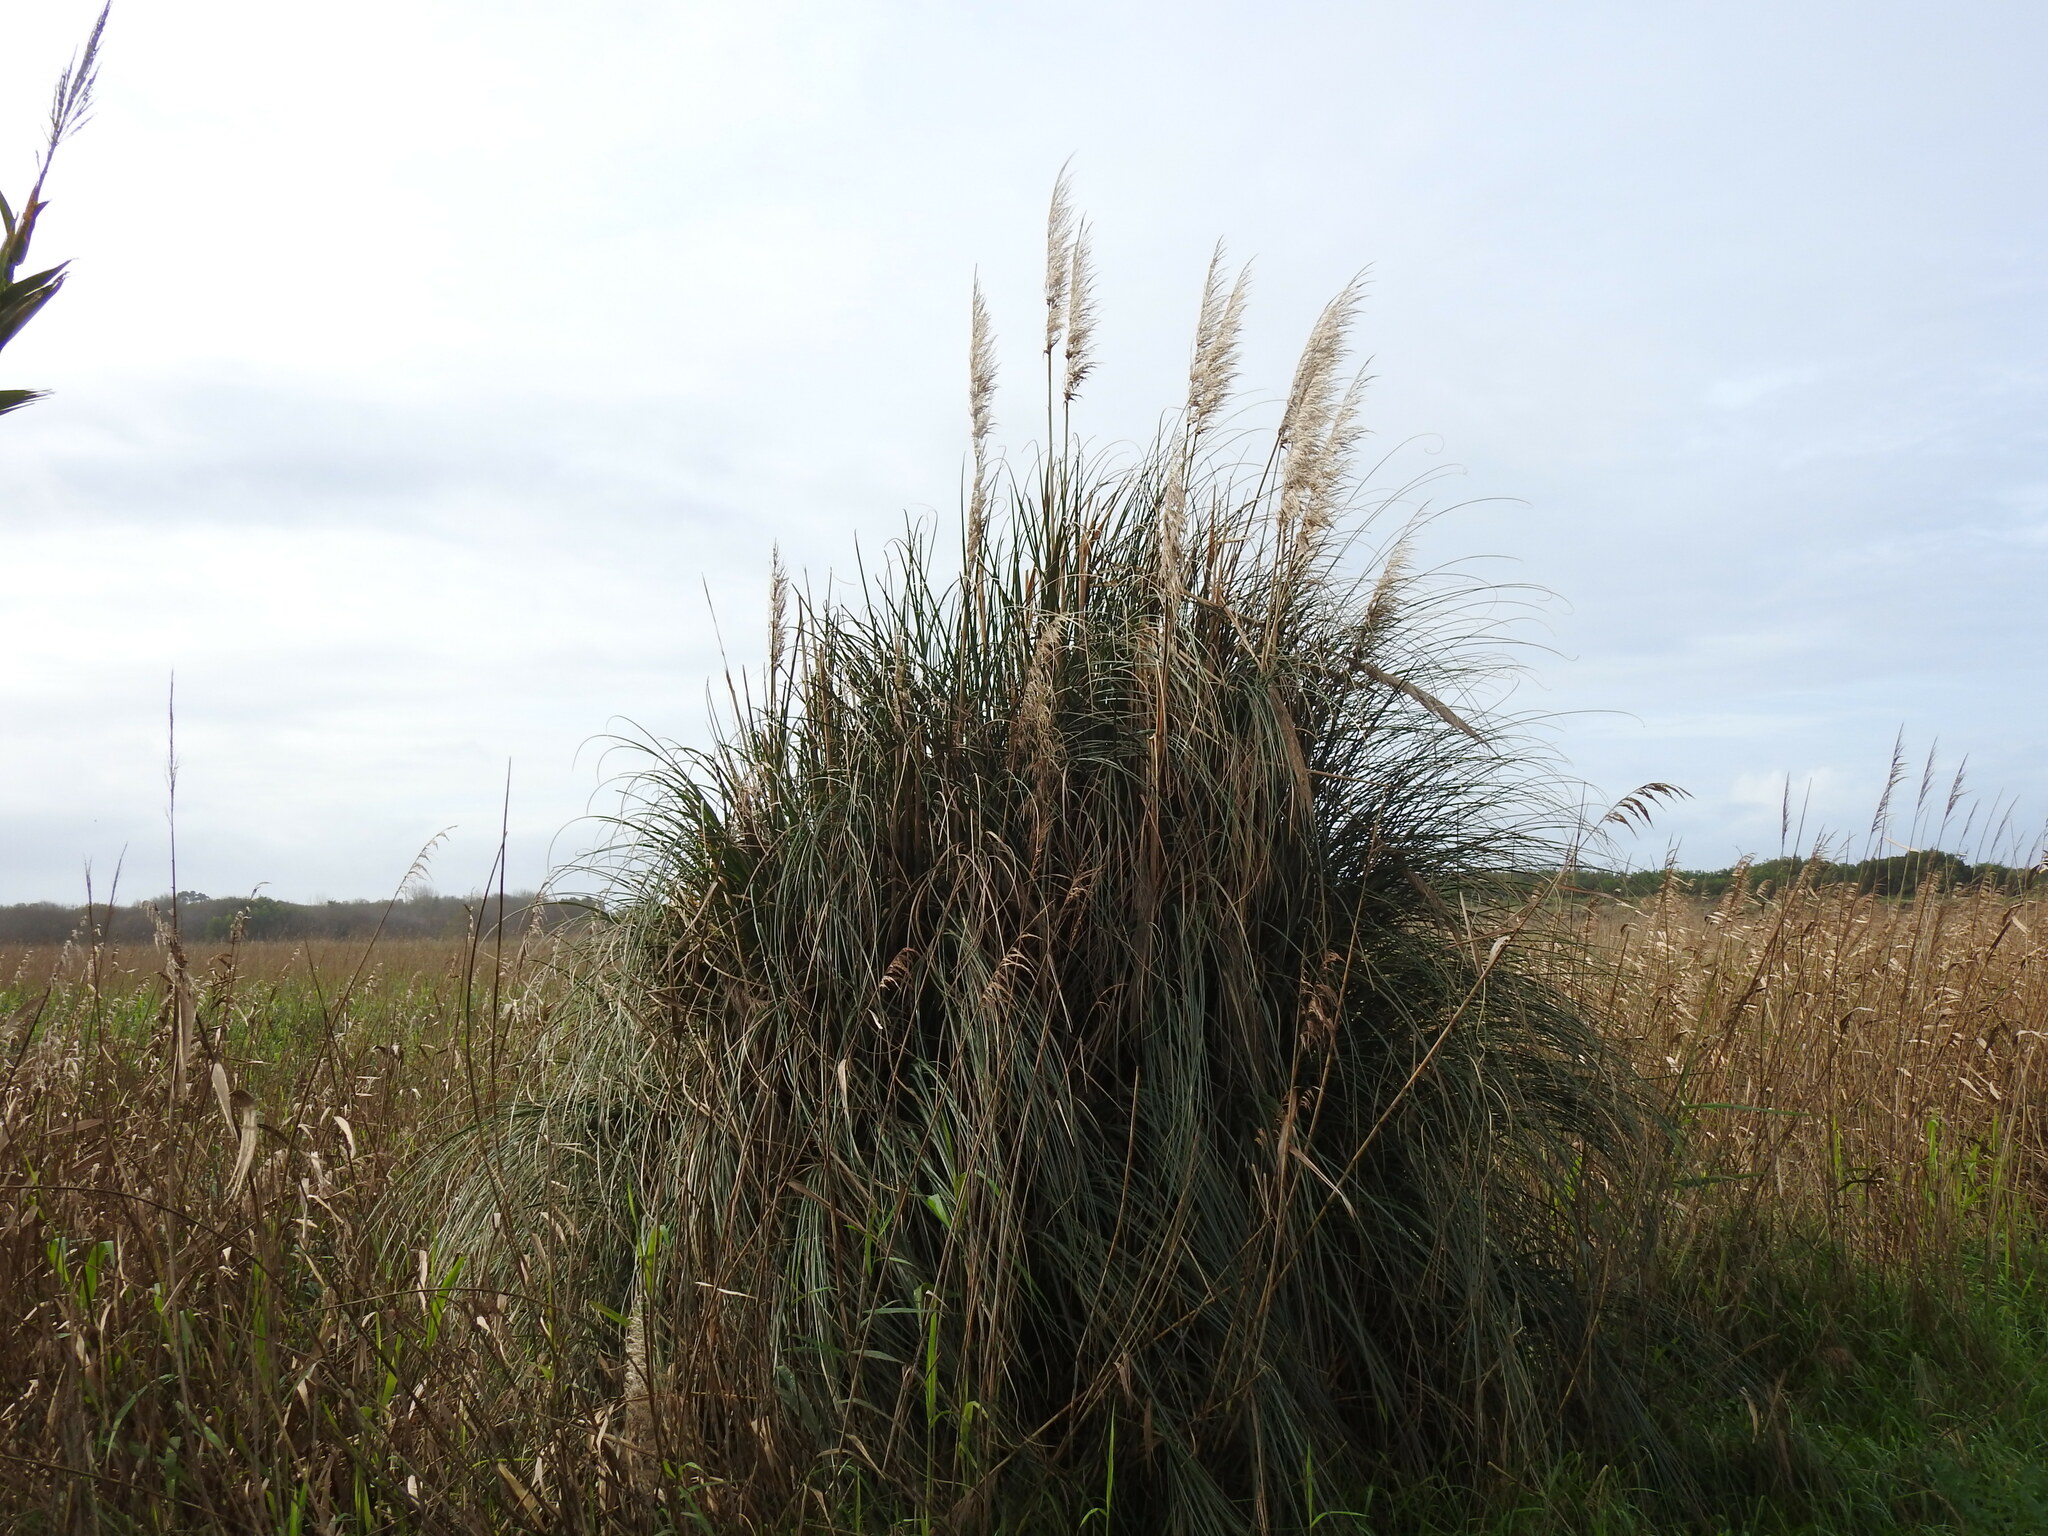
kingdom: Plantae
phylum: Tracheophyta
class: Liliopsida
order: Poales
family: Poaceae
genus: Cortaderia
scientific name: Cortaderia selloana
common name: Uruguayan pampas grass
